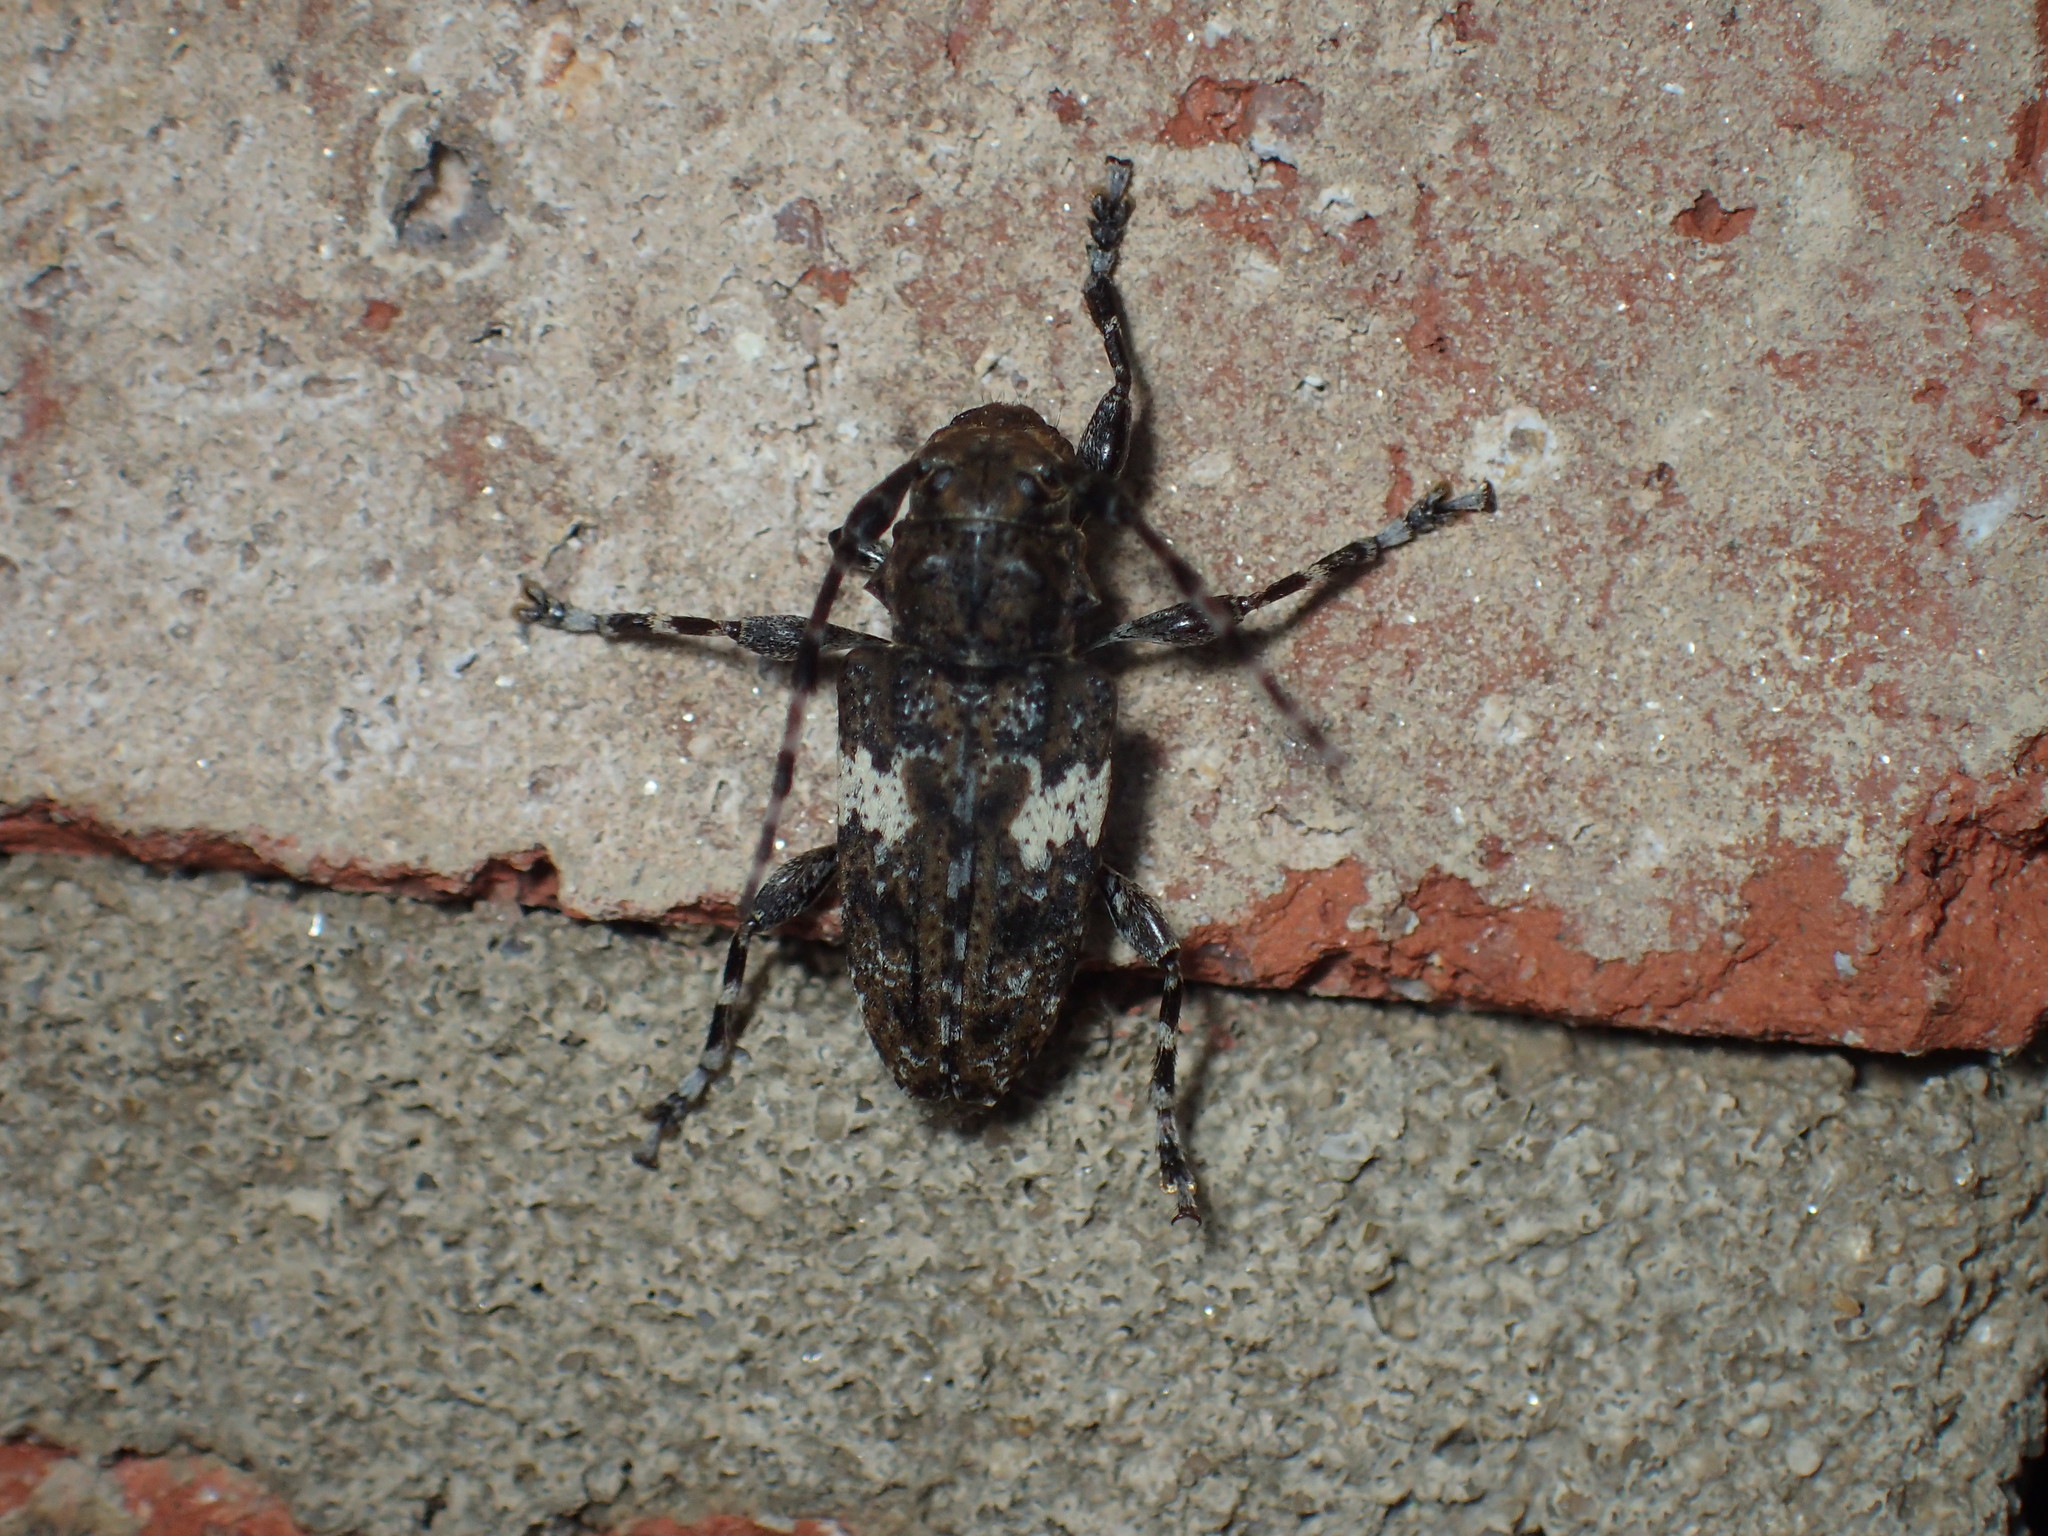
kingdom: Animalia
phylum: Arthropoda
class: Insecta
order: Coleoptera
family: Cerambycidae
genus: Acanthoderes
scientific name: Acanthoderes quadrigibba
